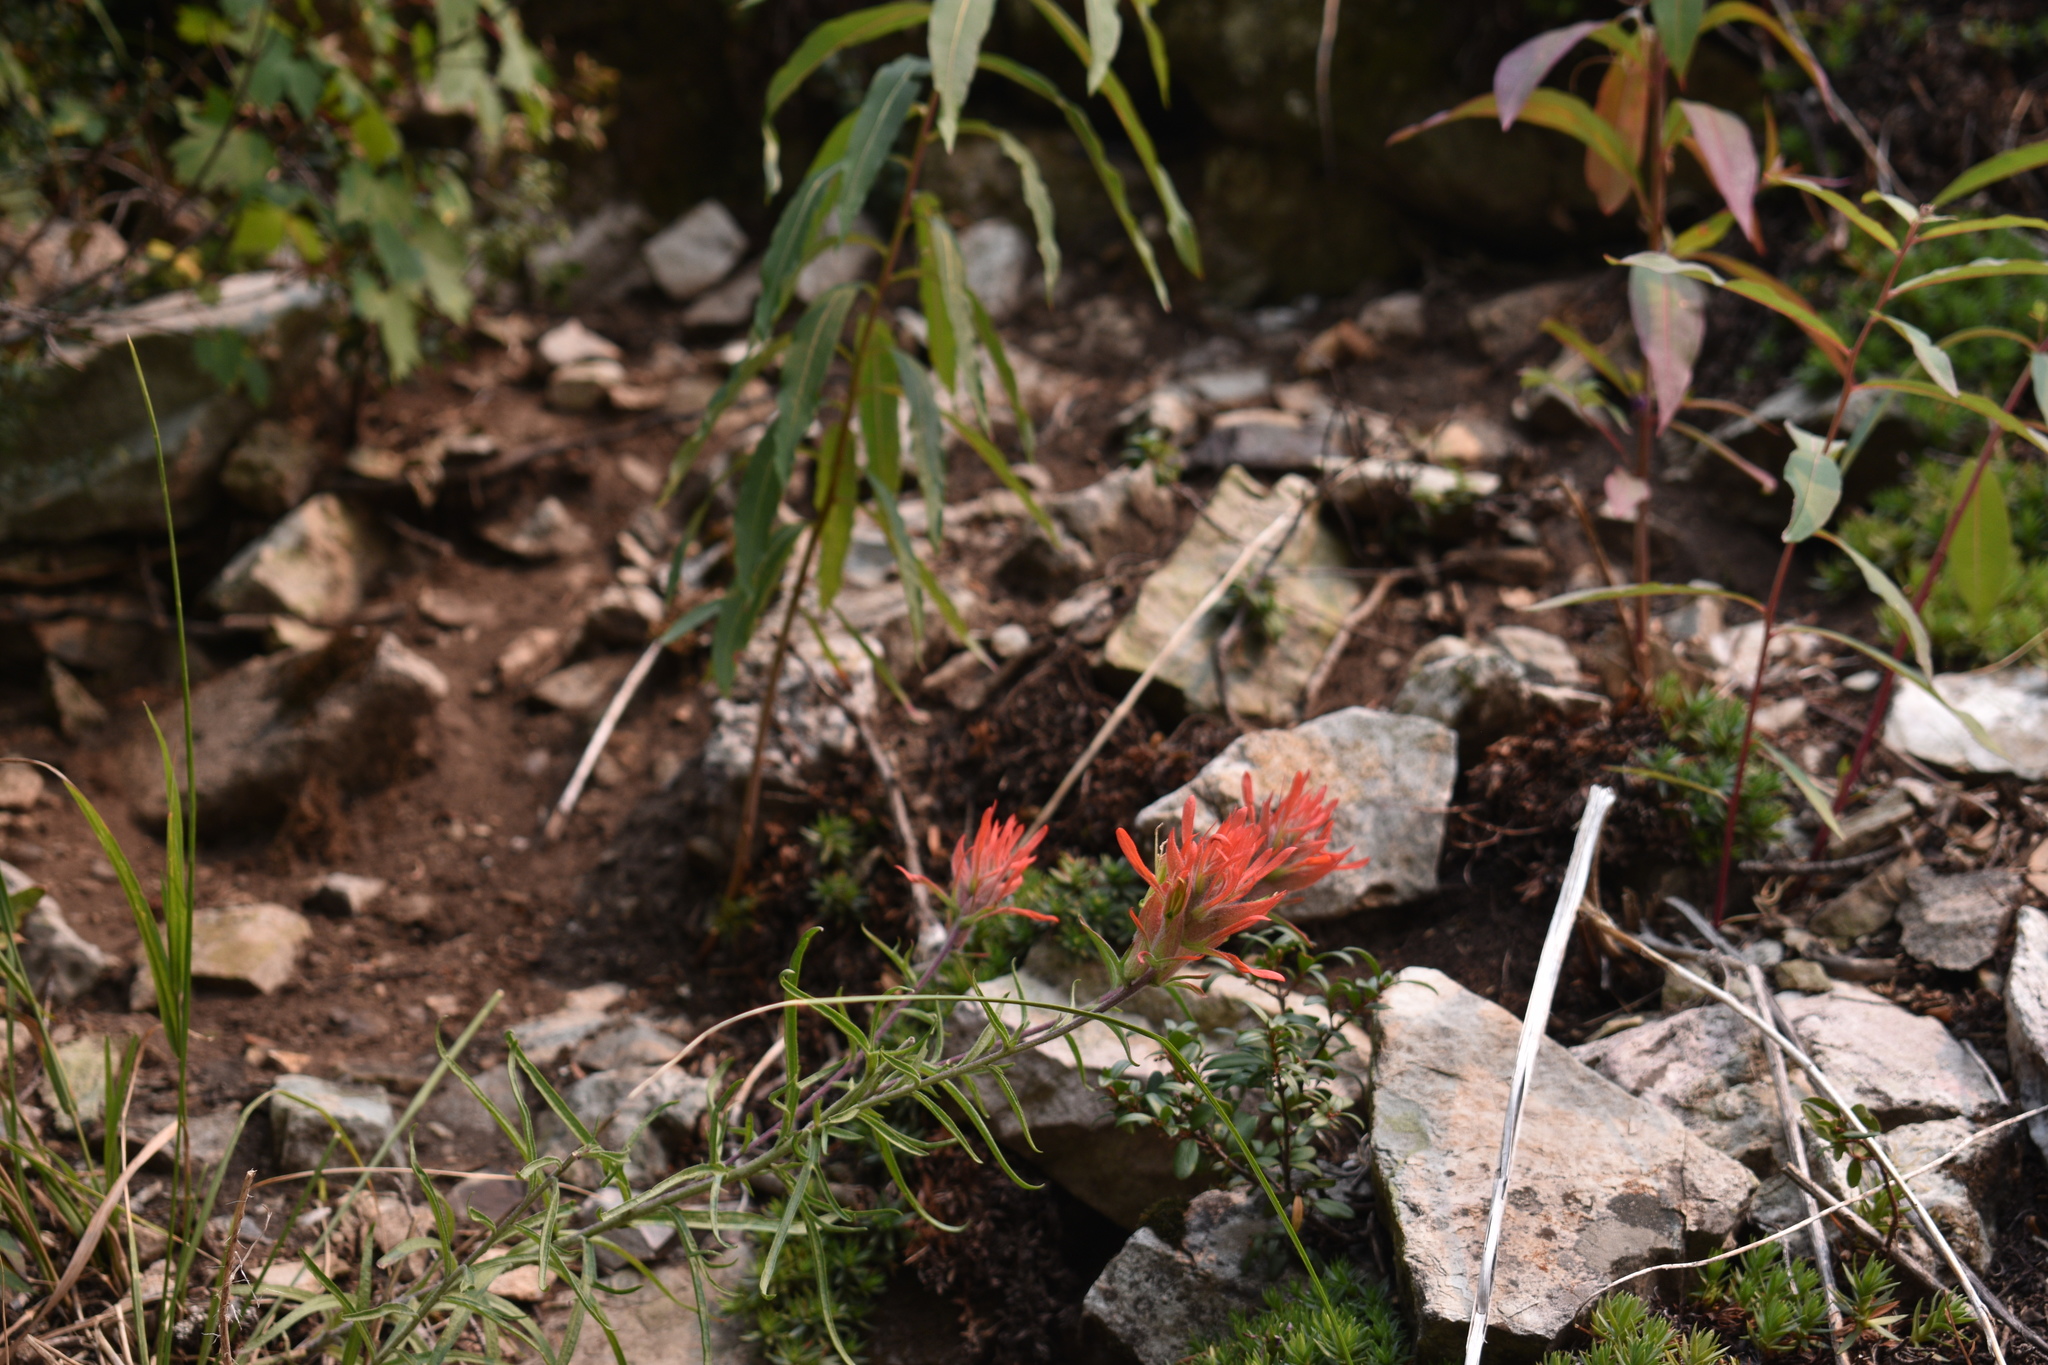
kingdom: Plantae
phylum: Tracheophyta
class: Magnoliopsida
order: Lamiales
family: Orobanchaceae
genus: Castilleja
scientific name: Castilleja linariifolia
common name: Wyoming paintbrush
